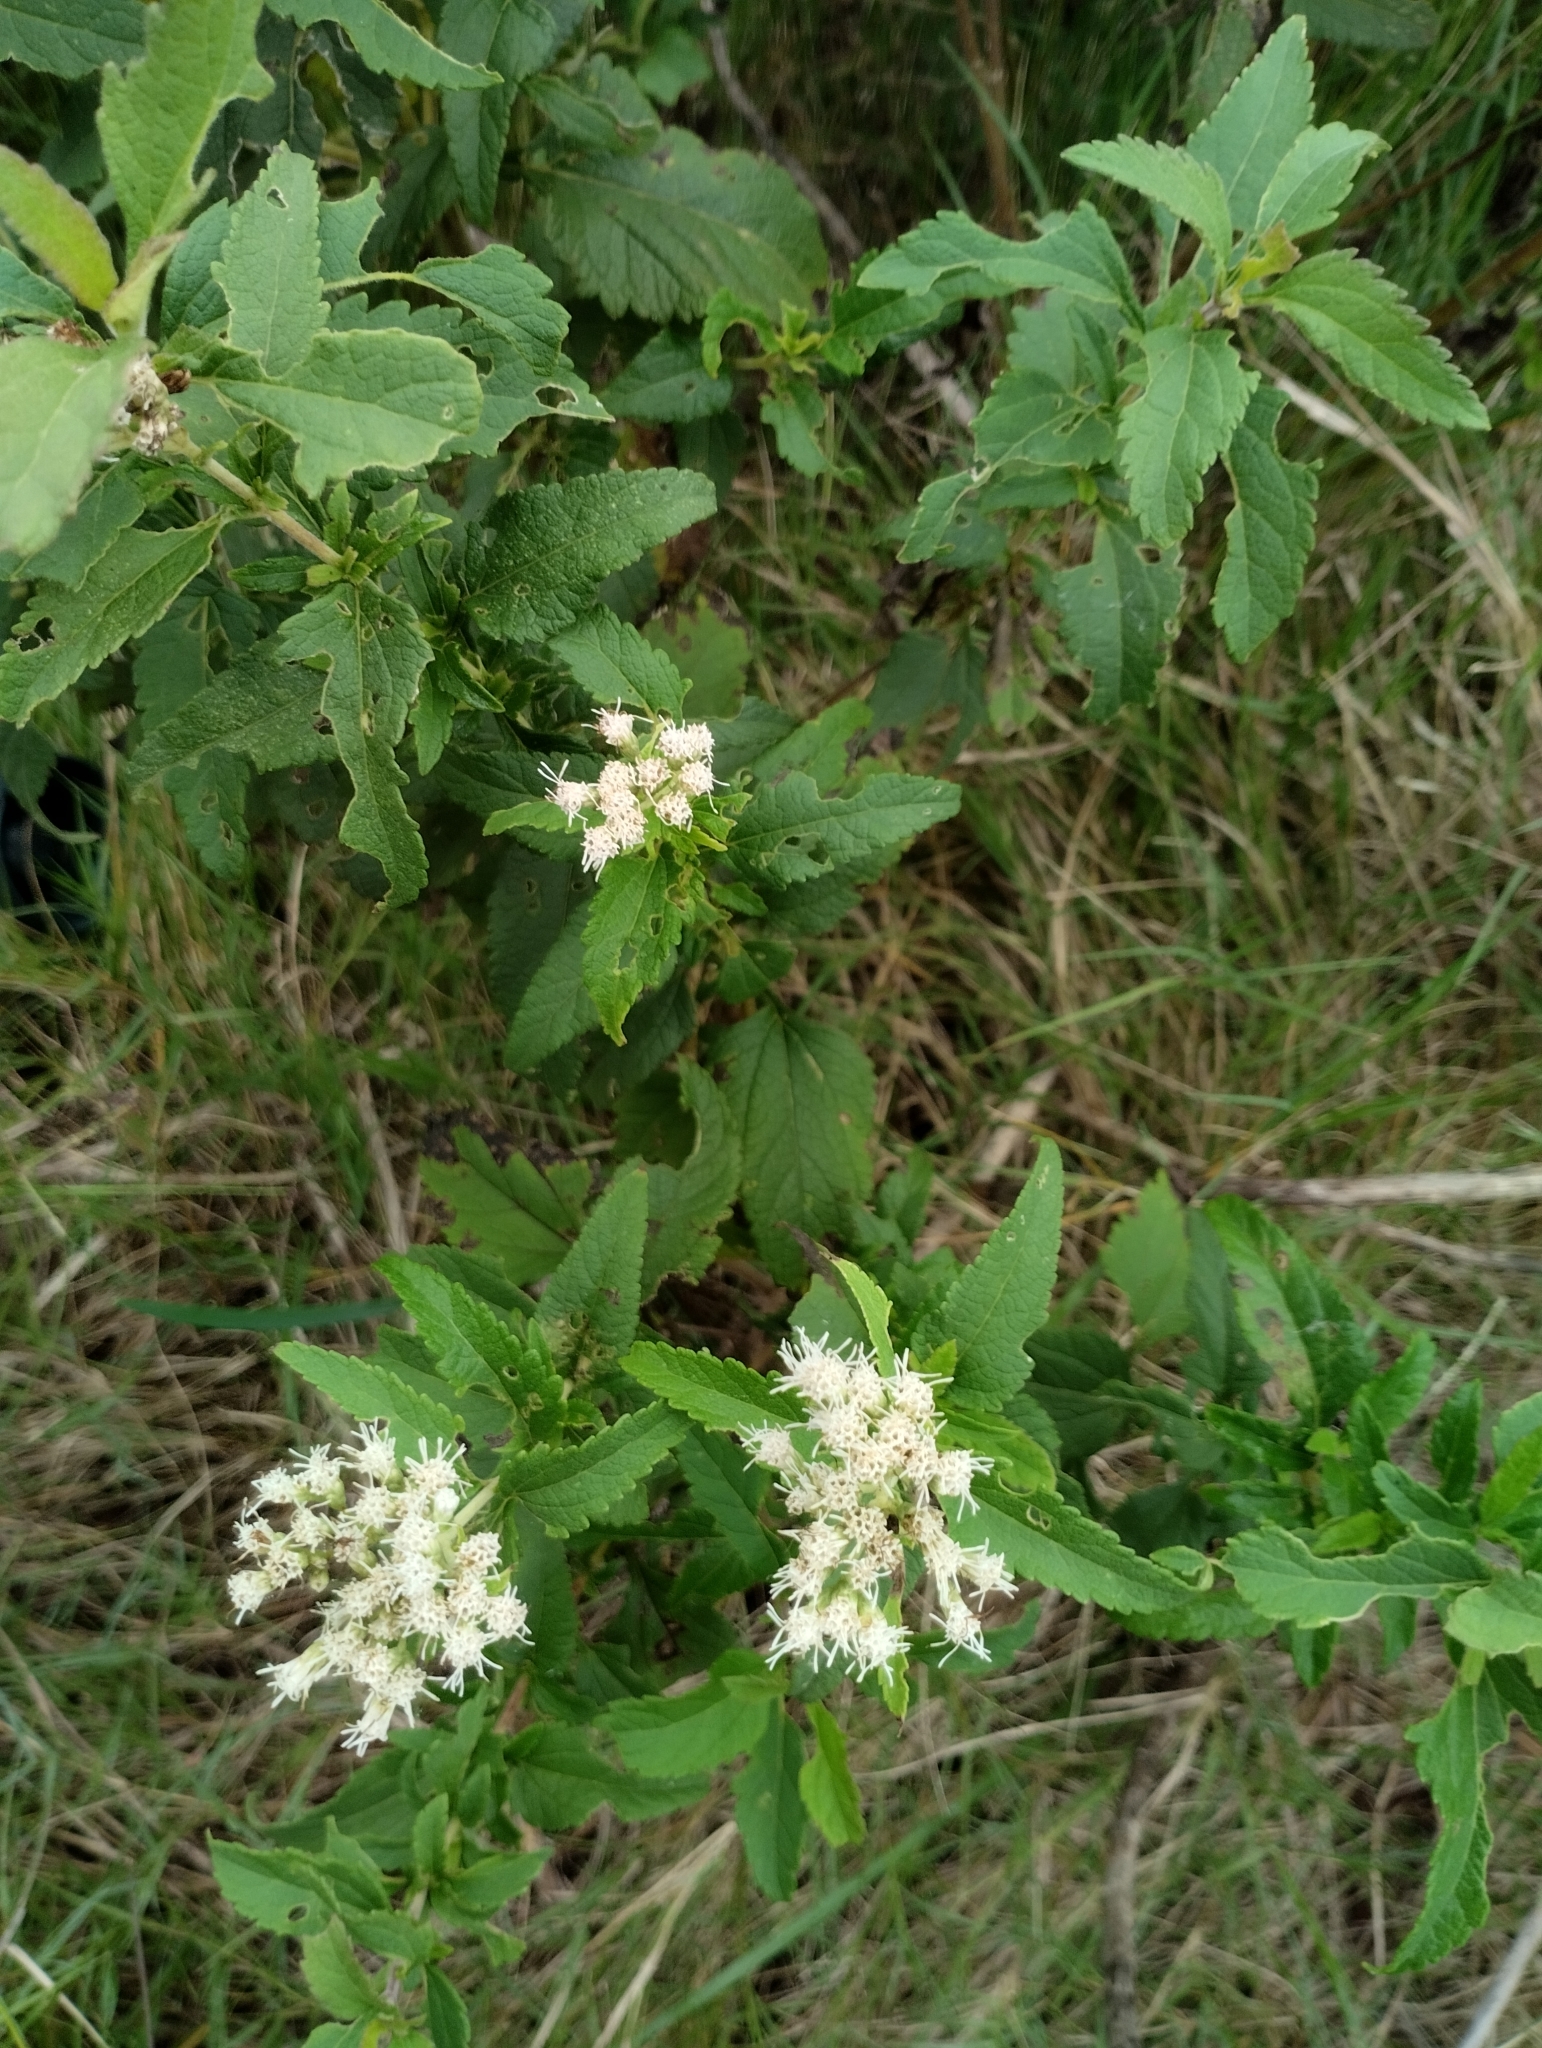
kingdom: Plantae
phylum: Tracheophyta
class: Magnoliopsida
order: Asterales
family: Asteraceae
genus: Austroeupatorium
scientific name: Austroeupatorium inulifolium
